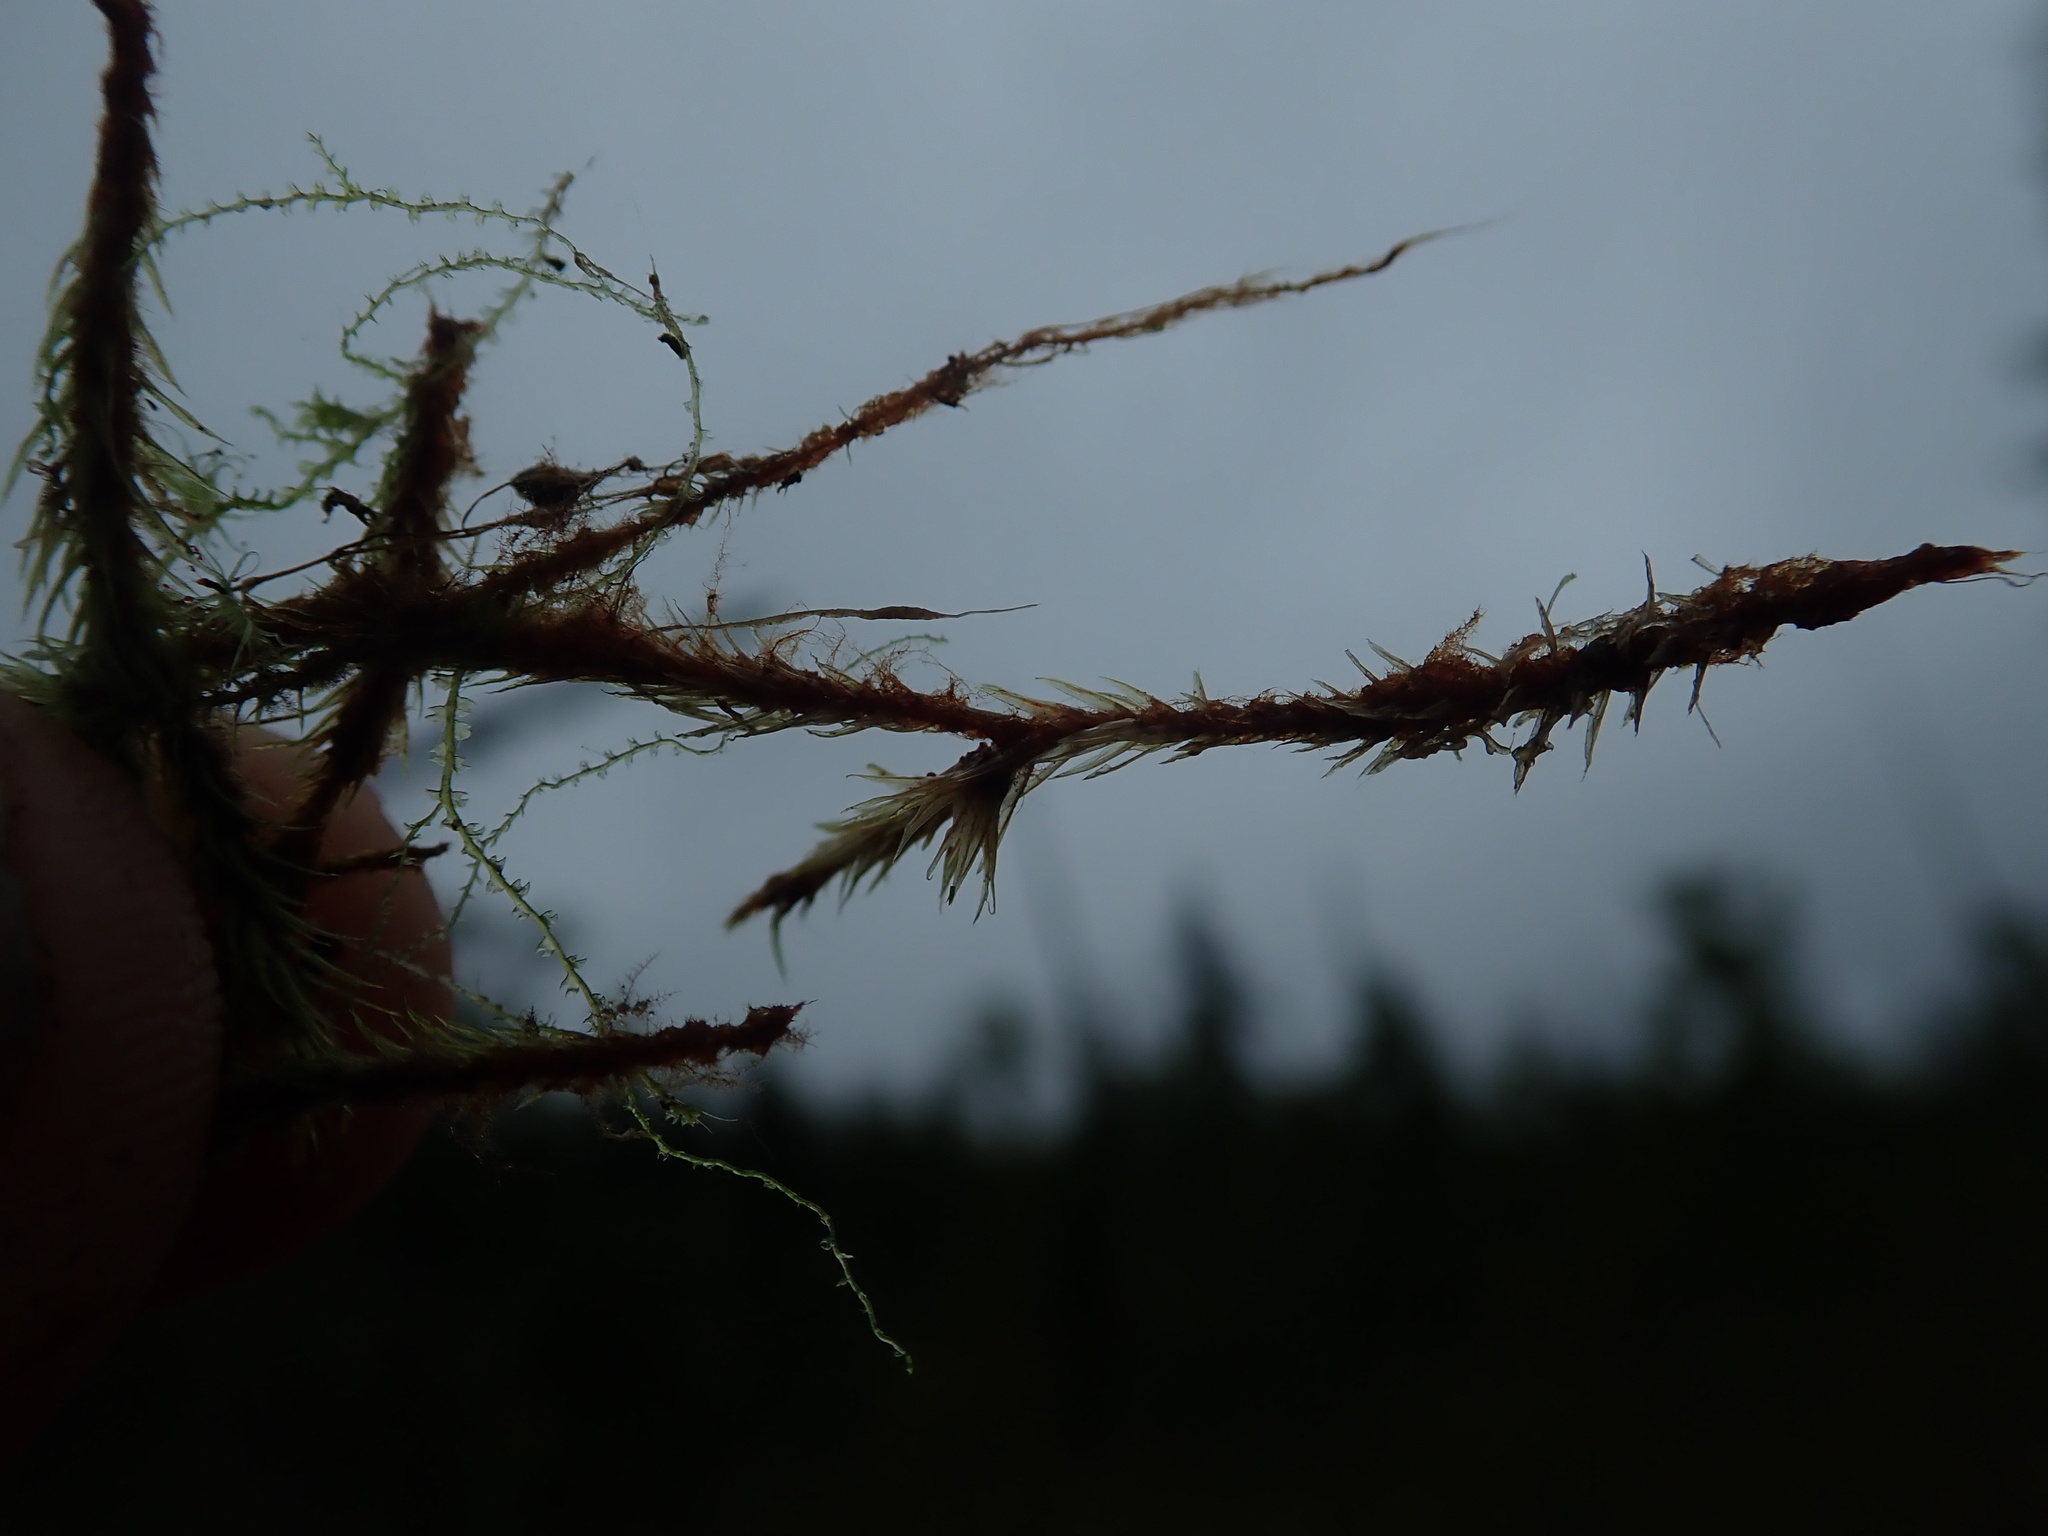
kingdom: Plantae
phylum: Bryophyta
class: Bryopsida
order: Aulacomniales
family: Aulacomniaceae
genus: Aulacomnium
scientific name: Aulacomnium palustre
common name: Bog groove-moss
